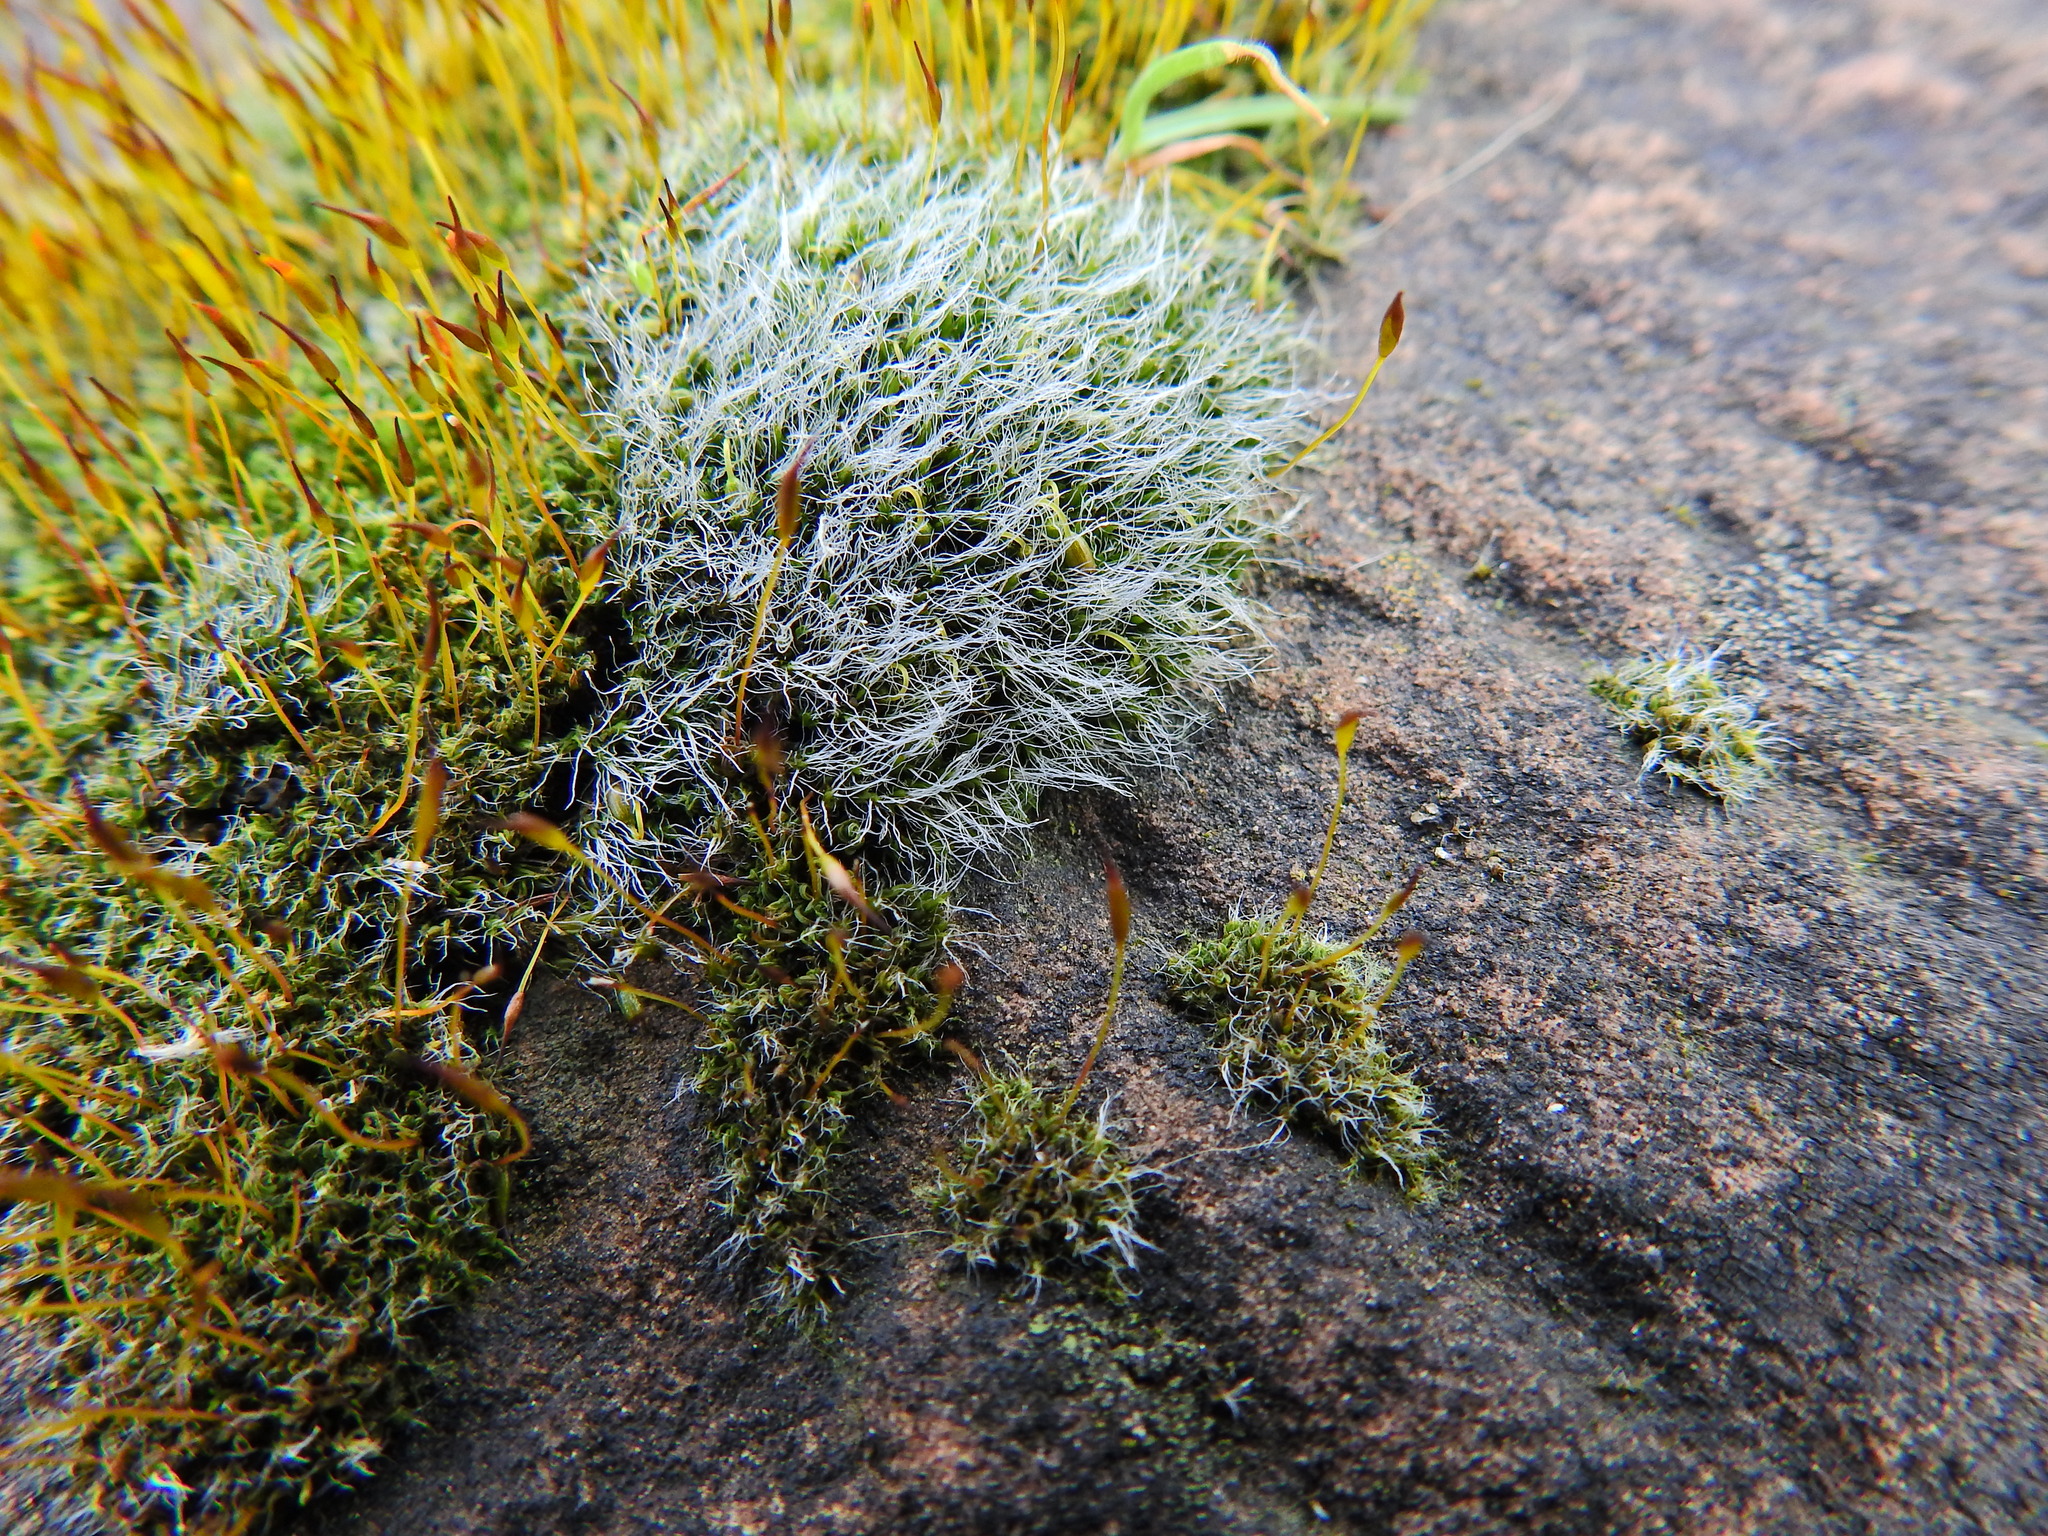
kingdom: Plantae
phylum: Bryophyta
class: Bryopsida
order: Grimmiales
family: Grimmiaceae
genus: Grimmia
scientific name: Grimmia pulvinata
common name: Grey-cushioned grimmia
